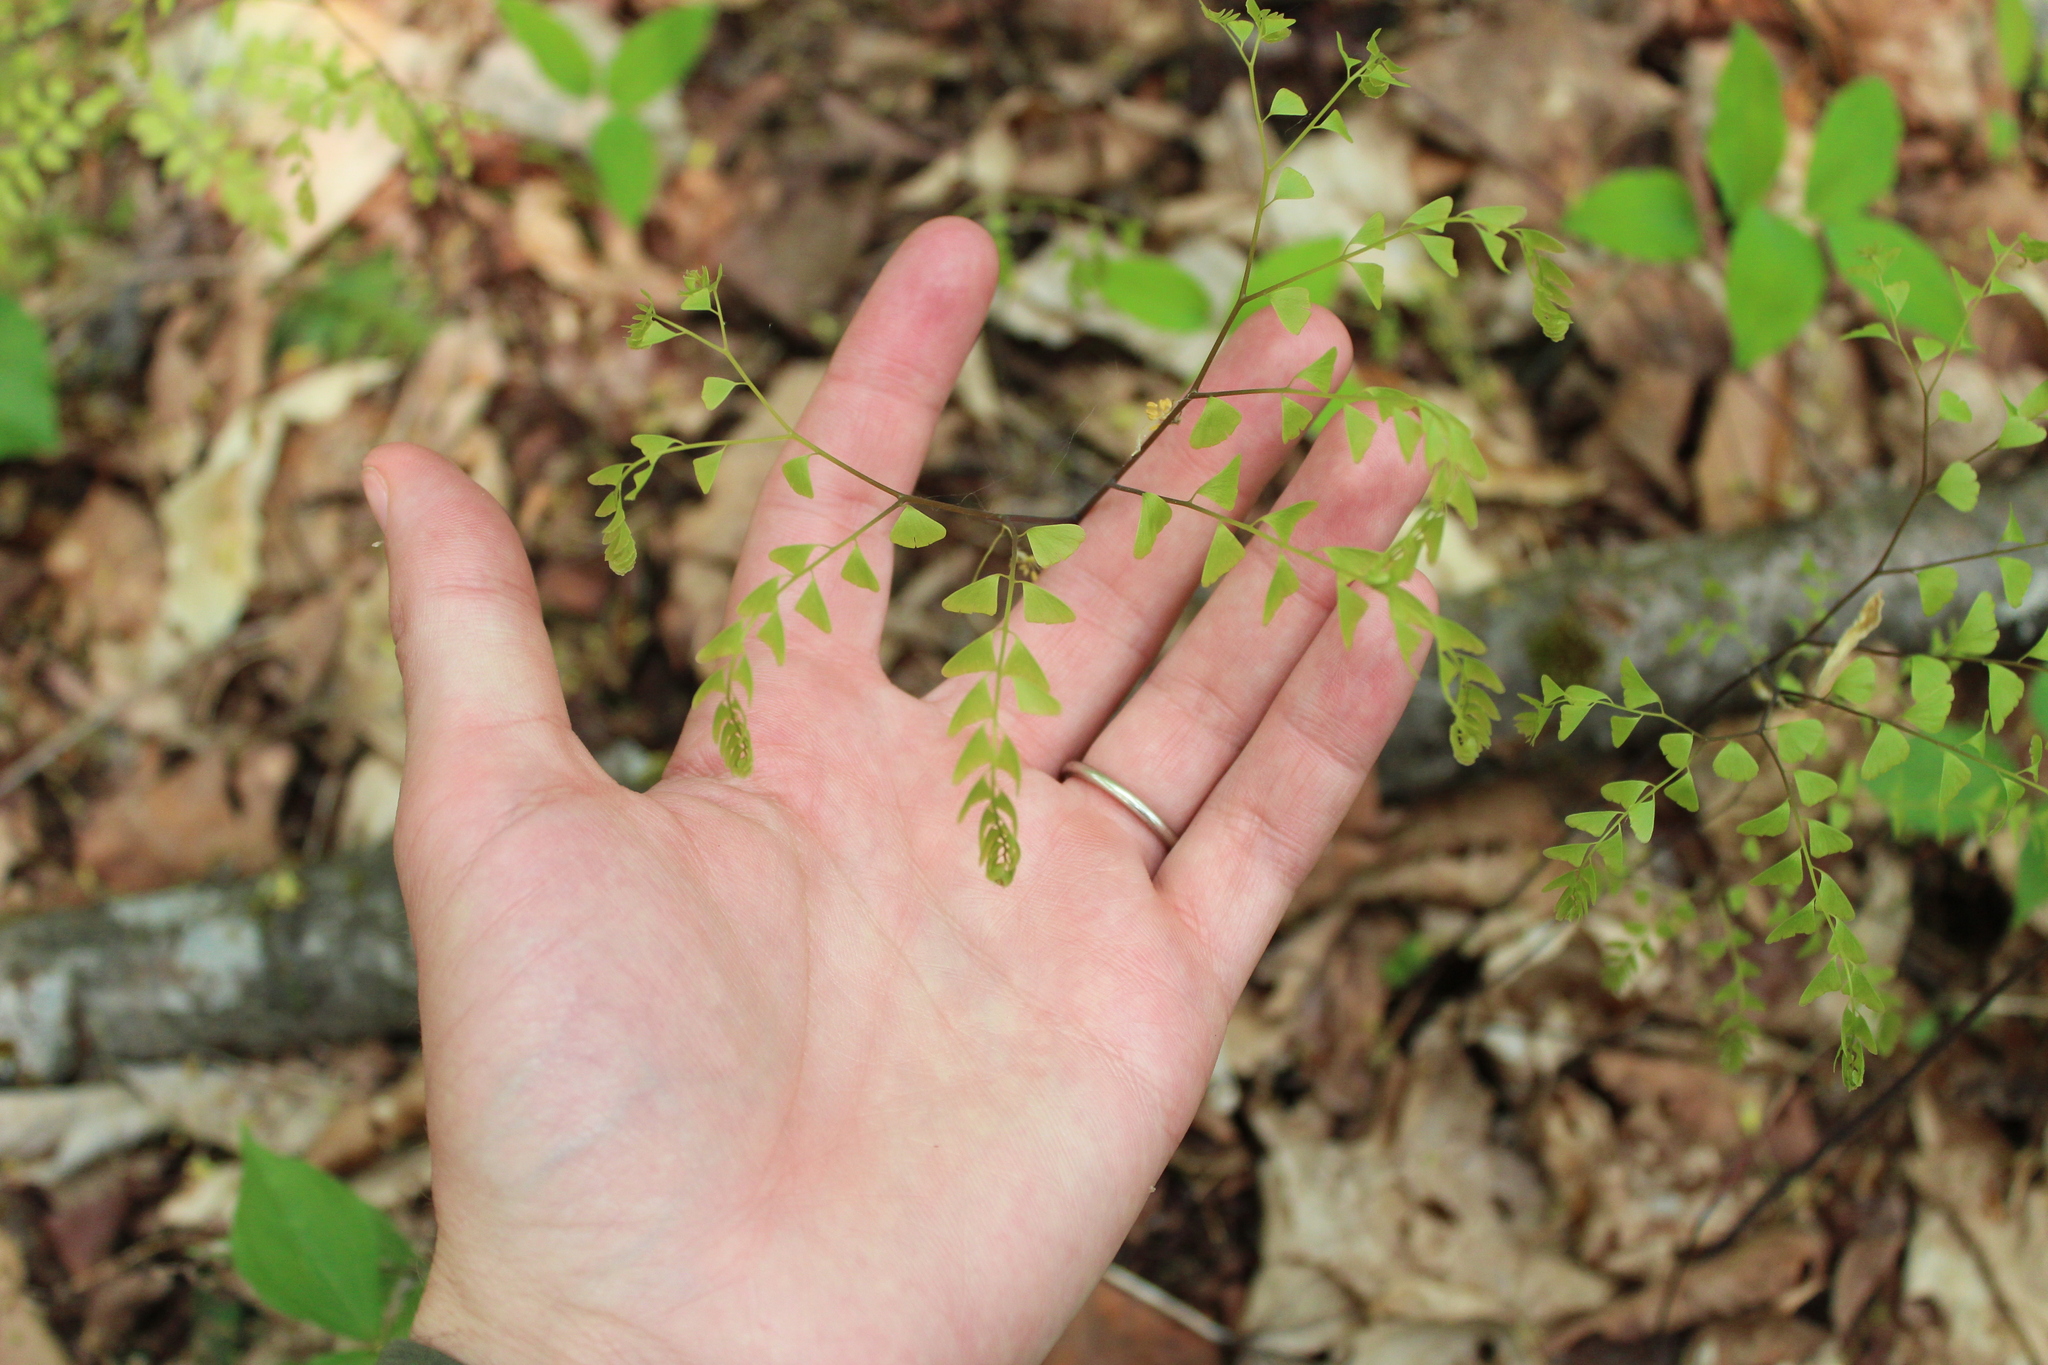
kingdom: Plantae
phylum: Tracheophyta
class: Polypodiopsida
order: Polypodiales
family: Pteridaceae
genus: Adiantum
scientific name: Adiantum pedatum
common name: Five-finger fern
